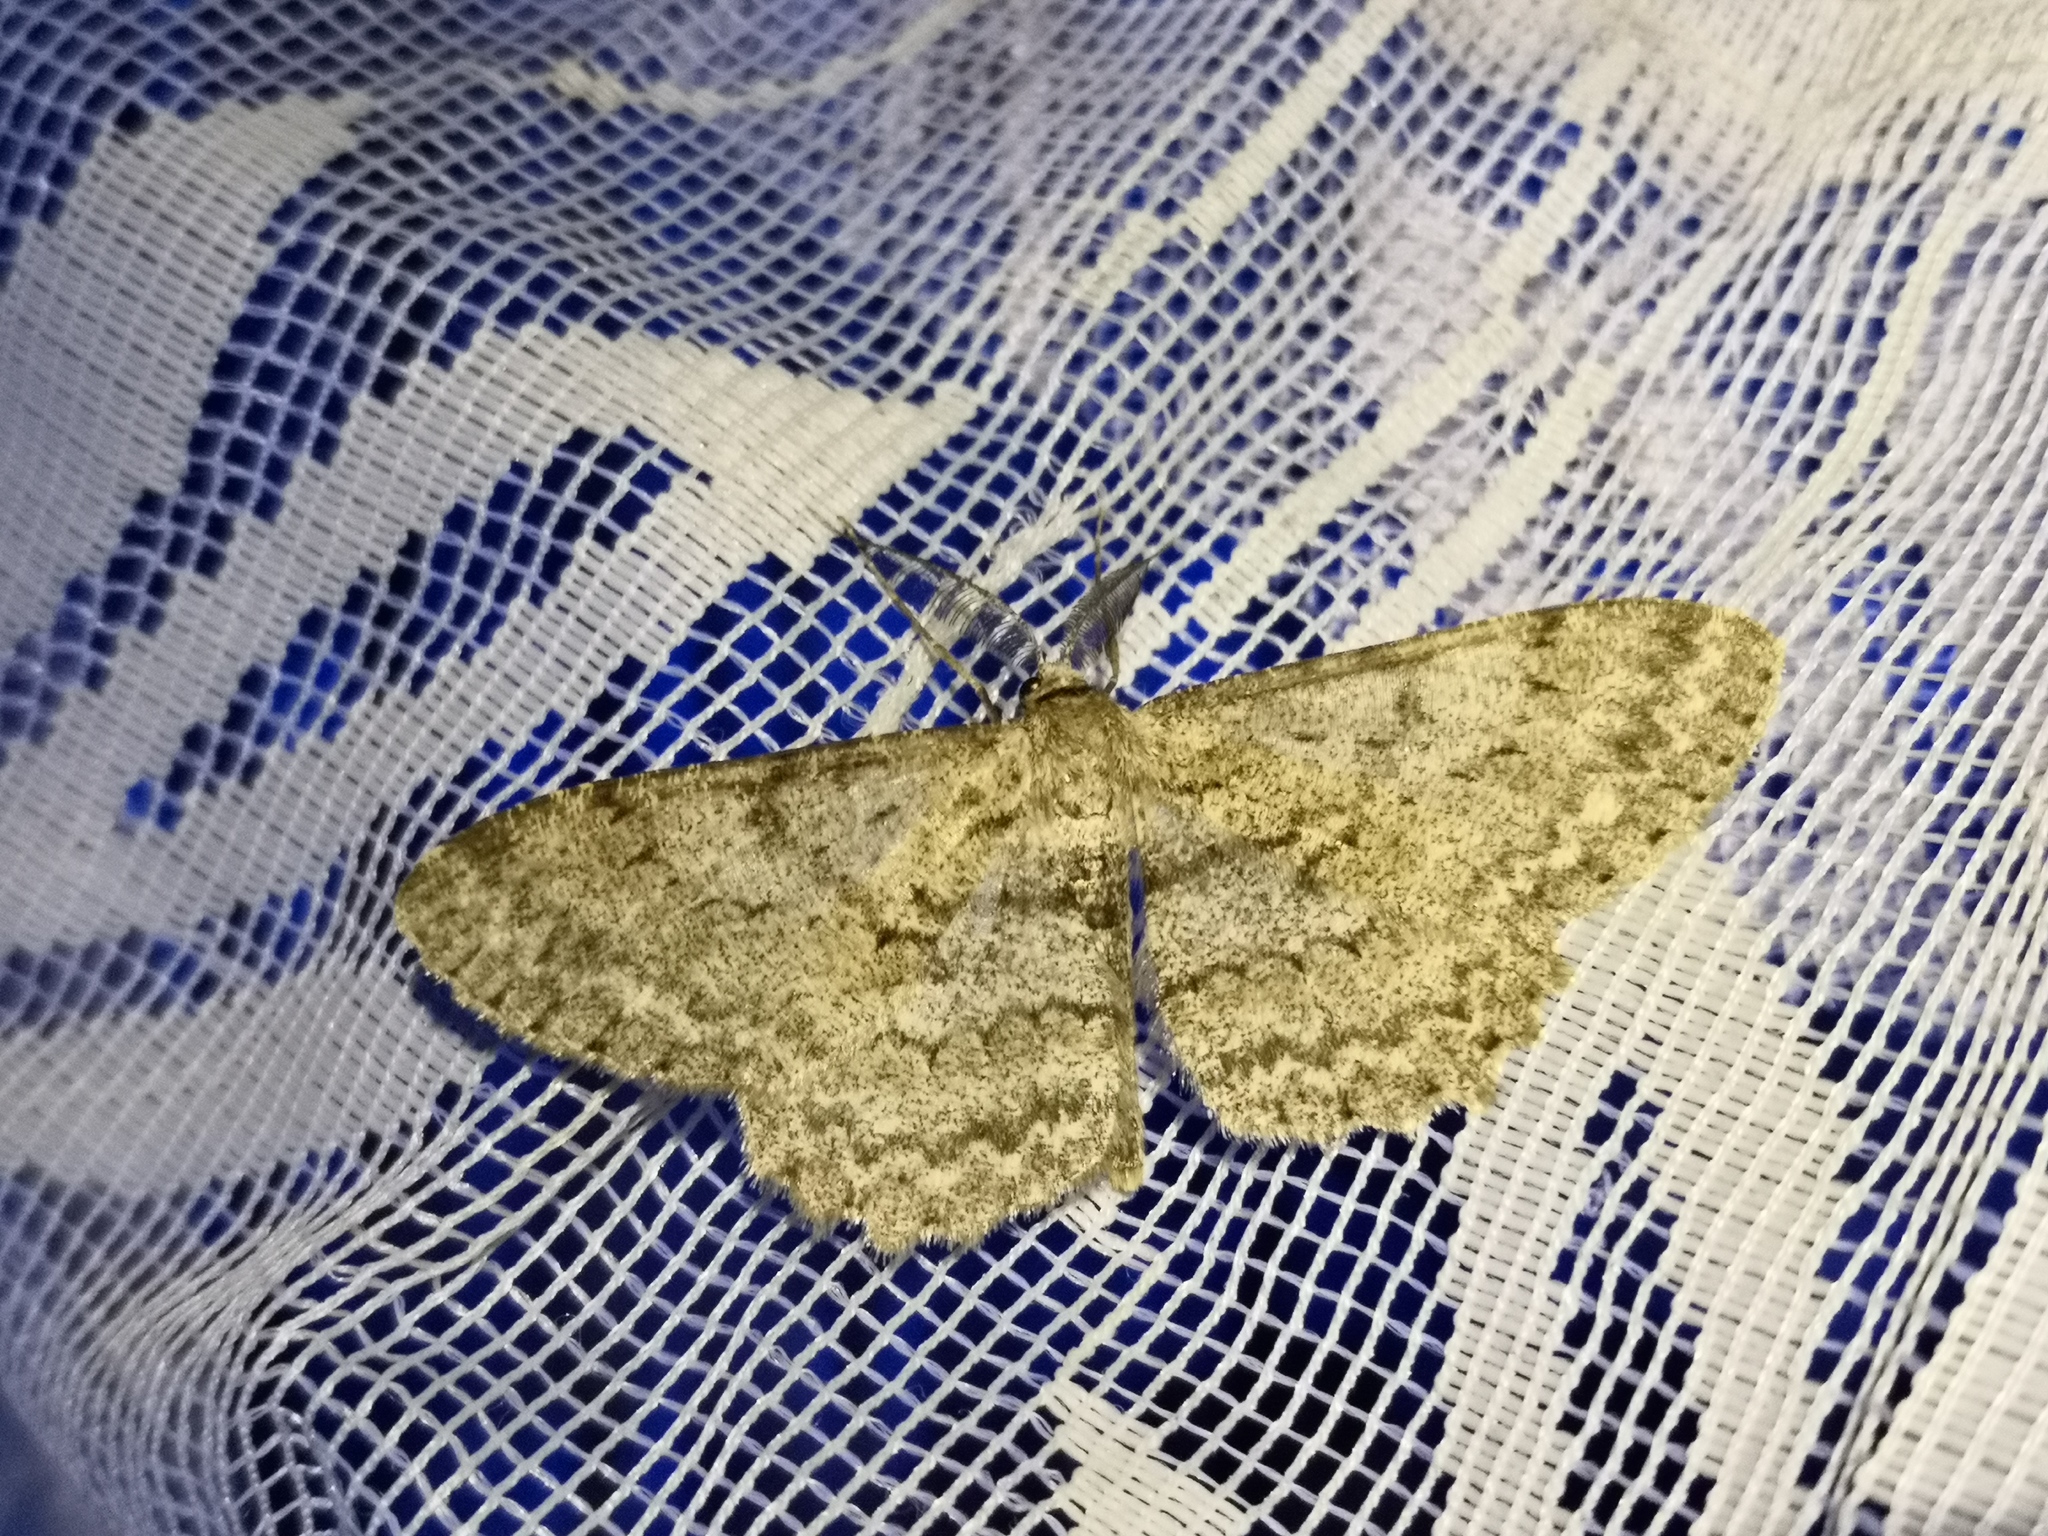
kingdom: Animalia
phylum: Arthropoda
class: Insecta
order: Lepidoptera
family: Geometridae
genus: Hypomecis
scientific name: Hypomecis punctinalis
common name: Pale oak beauty
